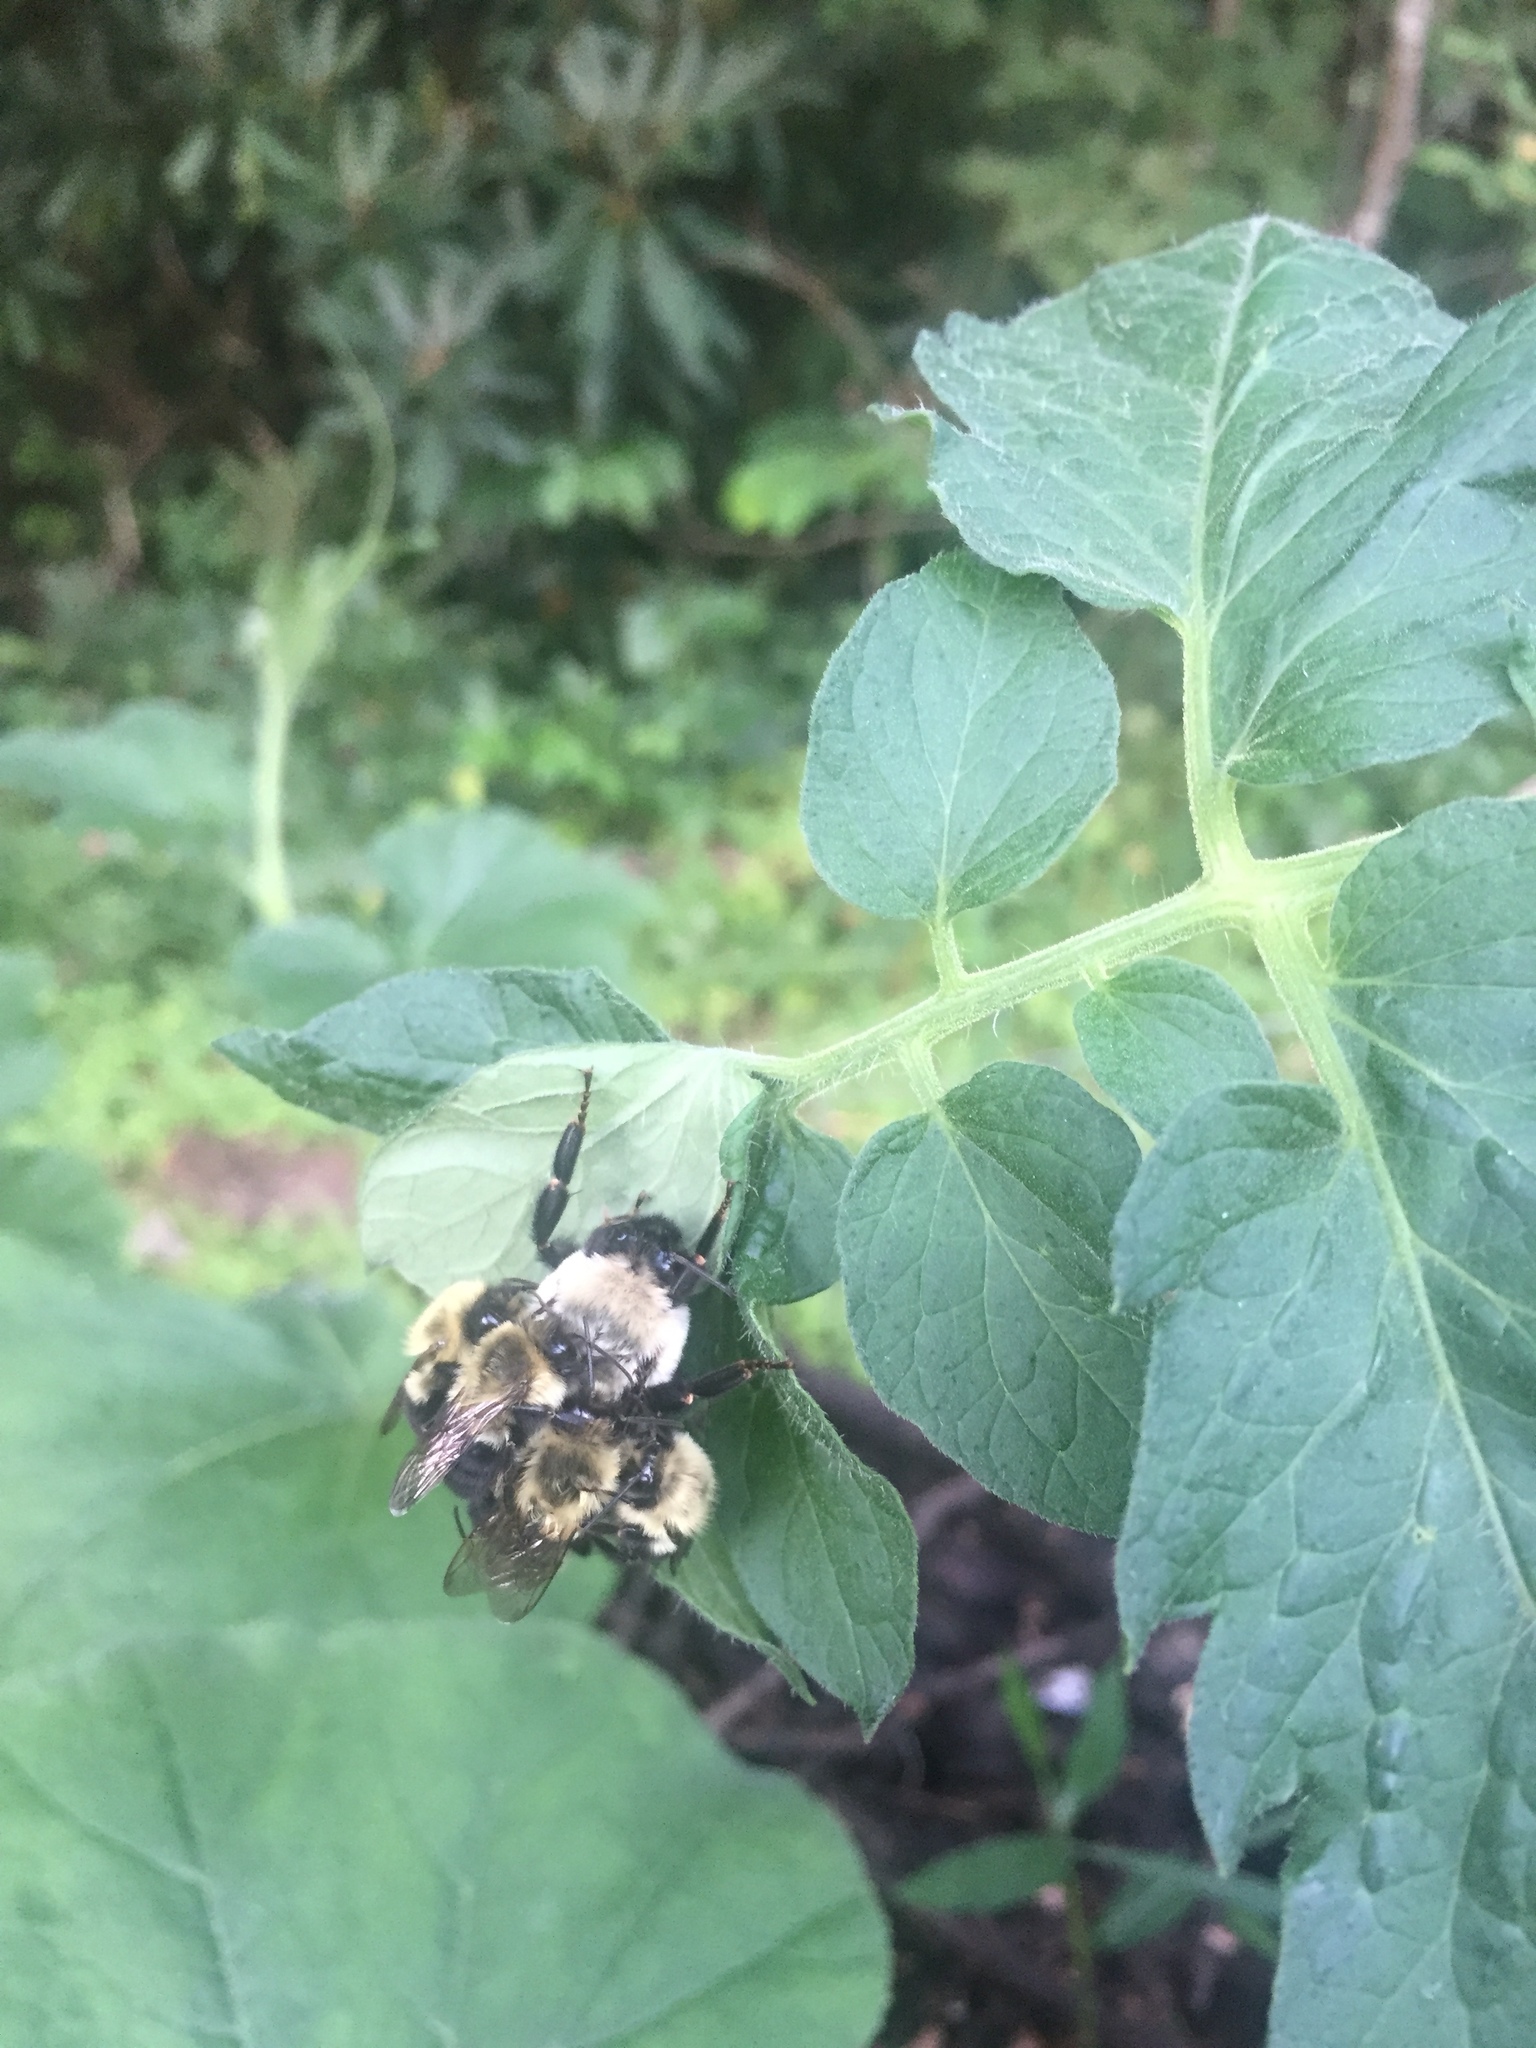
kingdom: Animalia
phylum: Arthropoda
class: Insecta
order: Hymenoptera
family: Apidae
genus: Bombus
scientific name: Bombus impatiens
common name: Common eastern bumble bee
